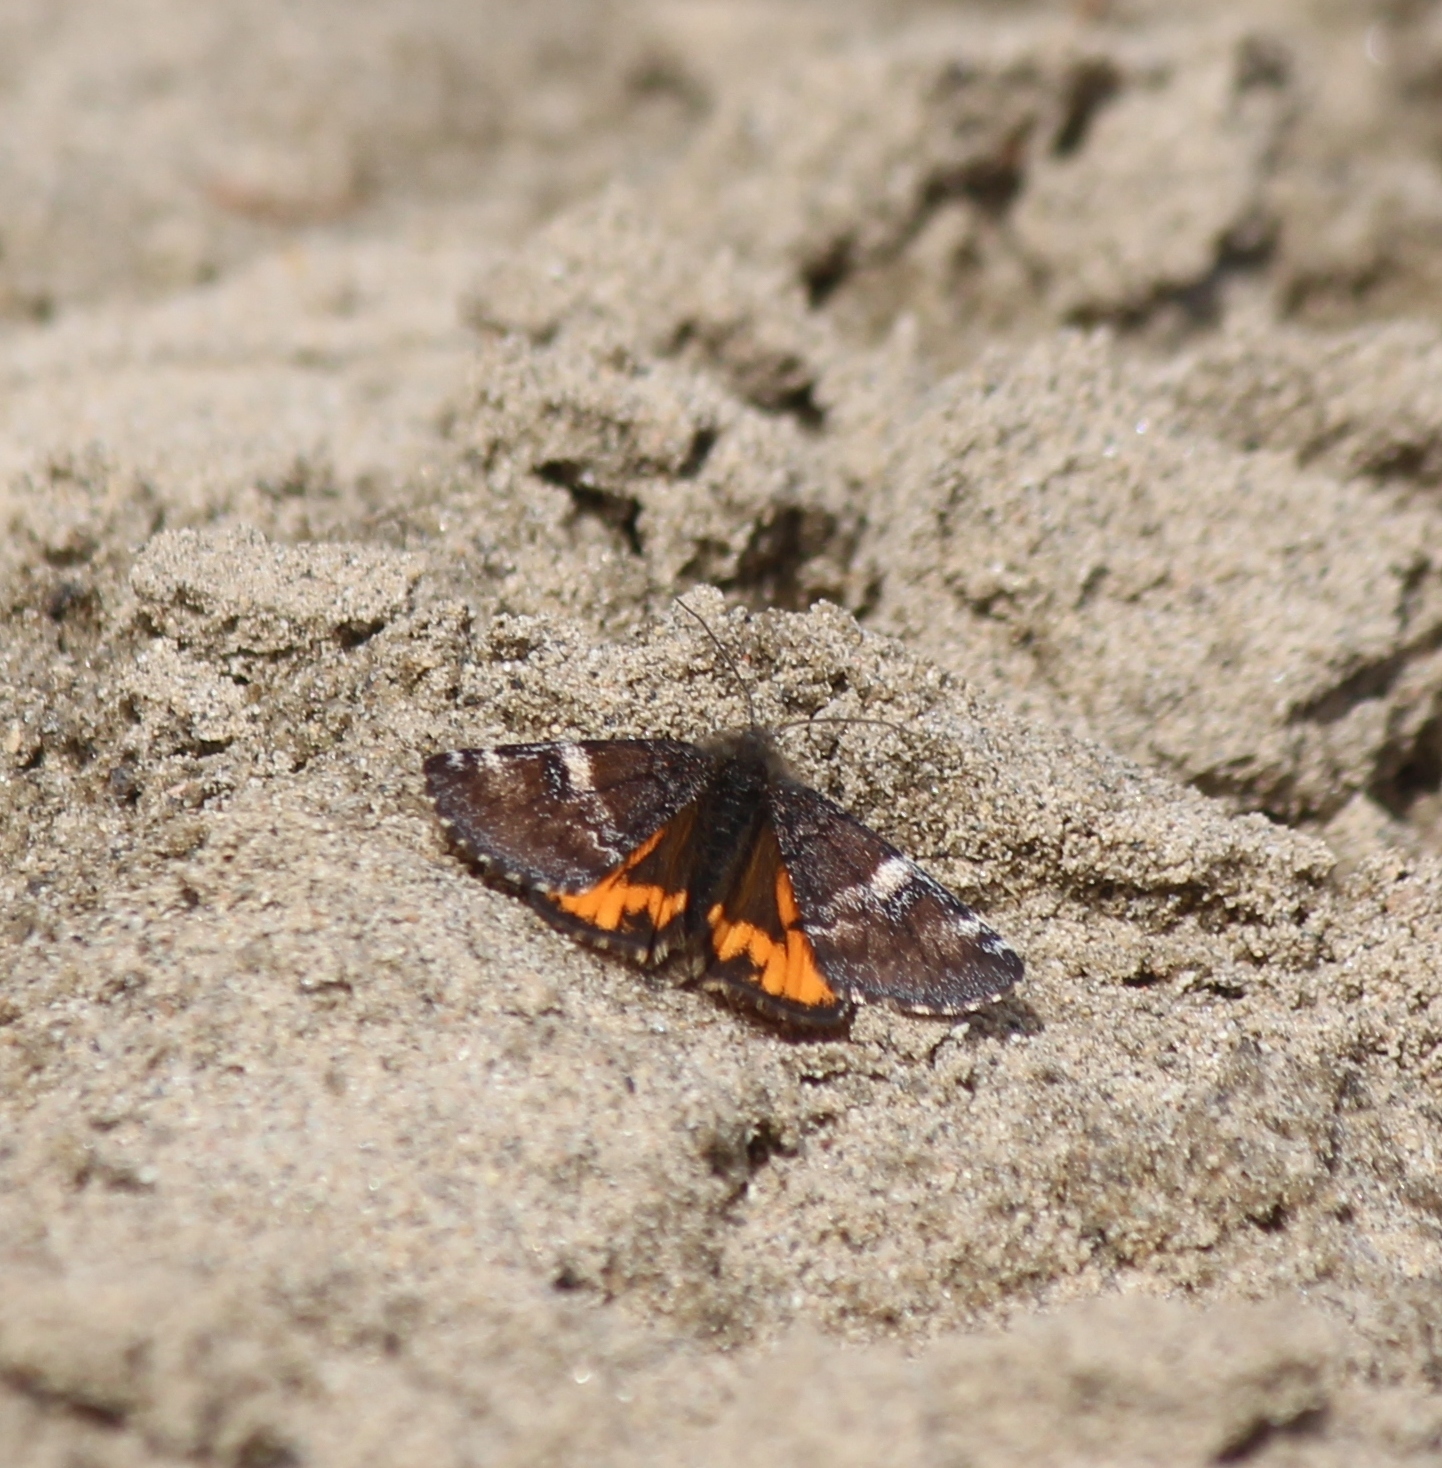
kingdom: Animalia
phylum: Arthropoda
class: Insecta
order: Lepidoptera
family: Geometridae
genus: Archiearis
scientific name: Archiearis parthenias
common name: Orange underwing
